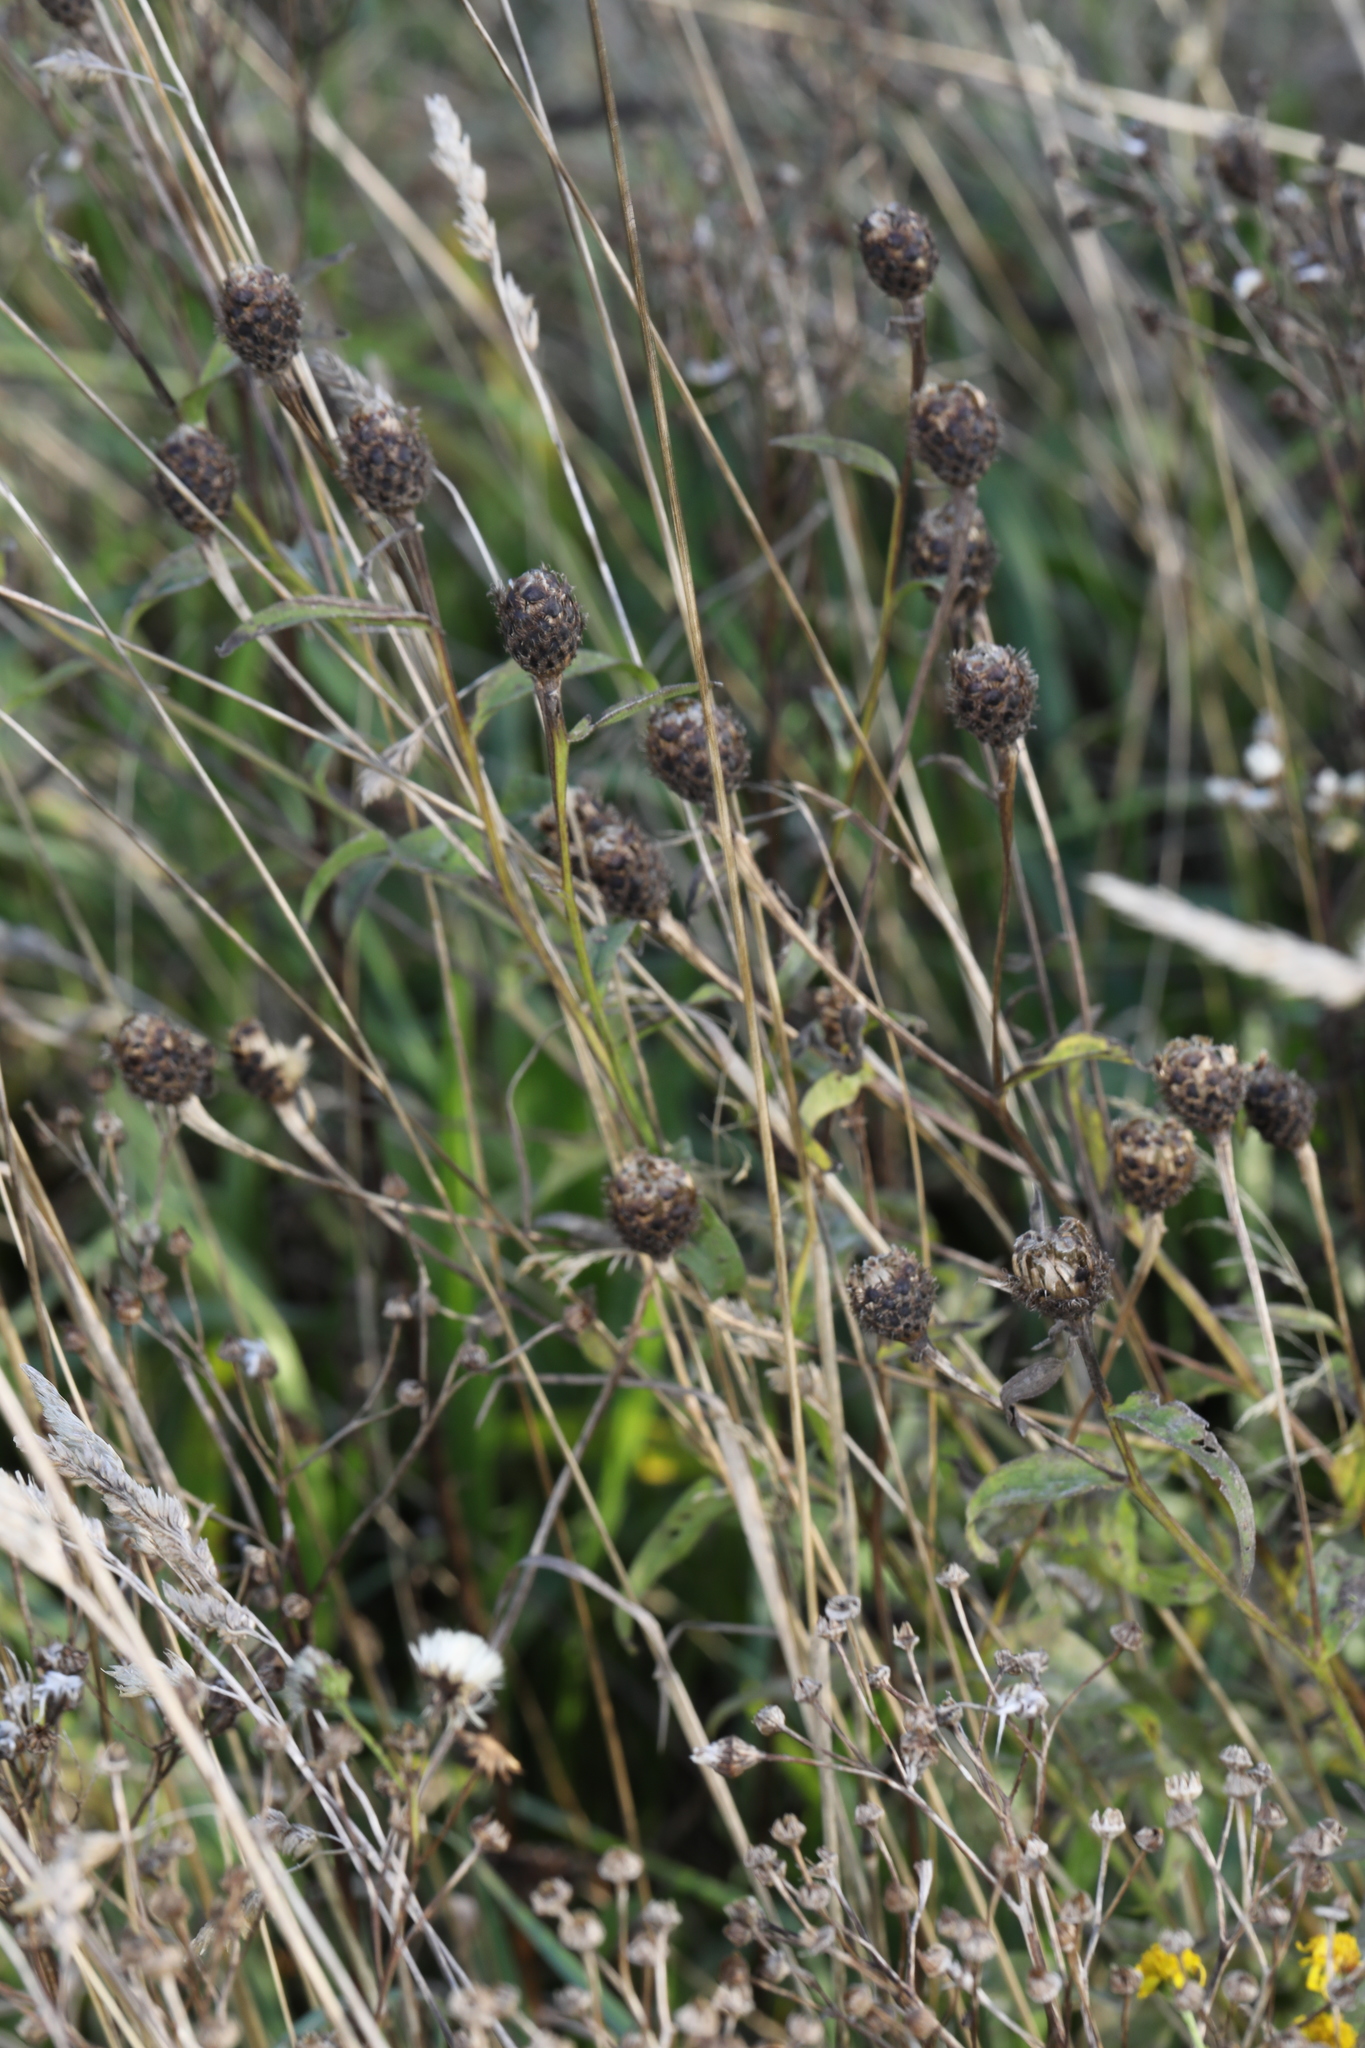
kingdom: Plantae
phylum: Tracheophyta
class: Magnoliopsida
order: Asterales
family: Asteraceae
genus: Centaurea
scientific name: Centaurea nigra
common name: Lesser knapweed
